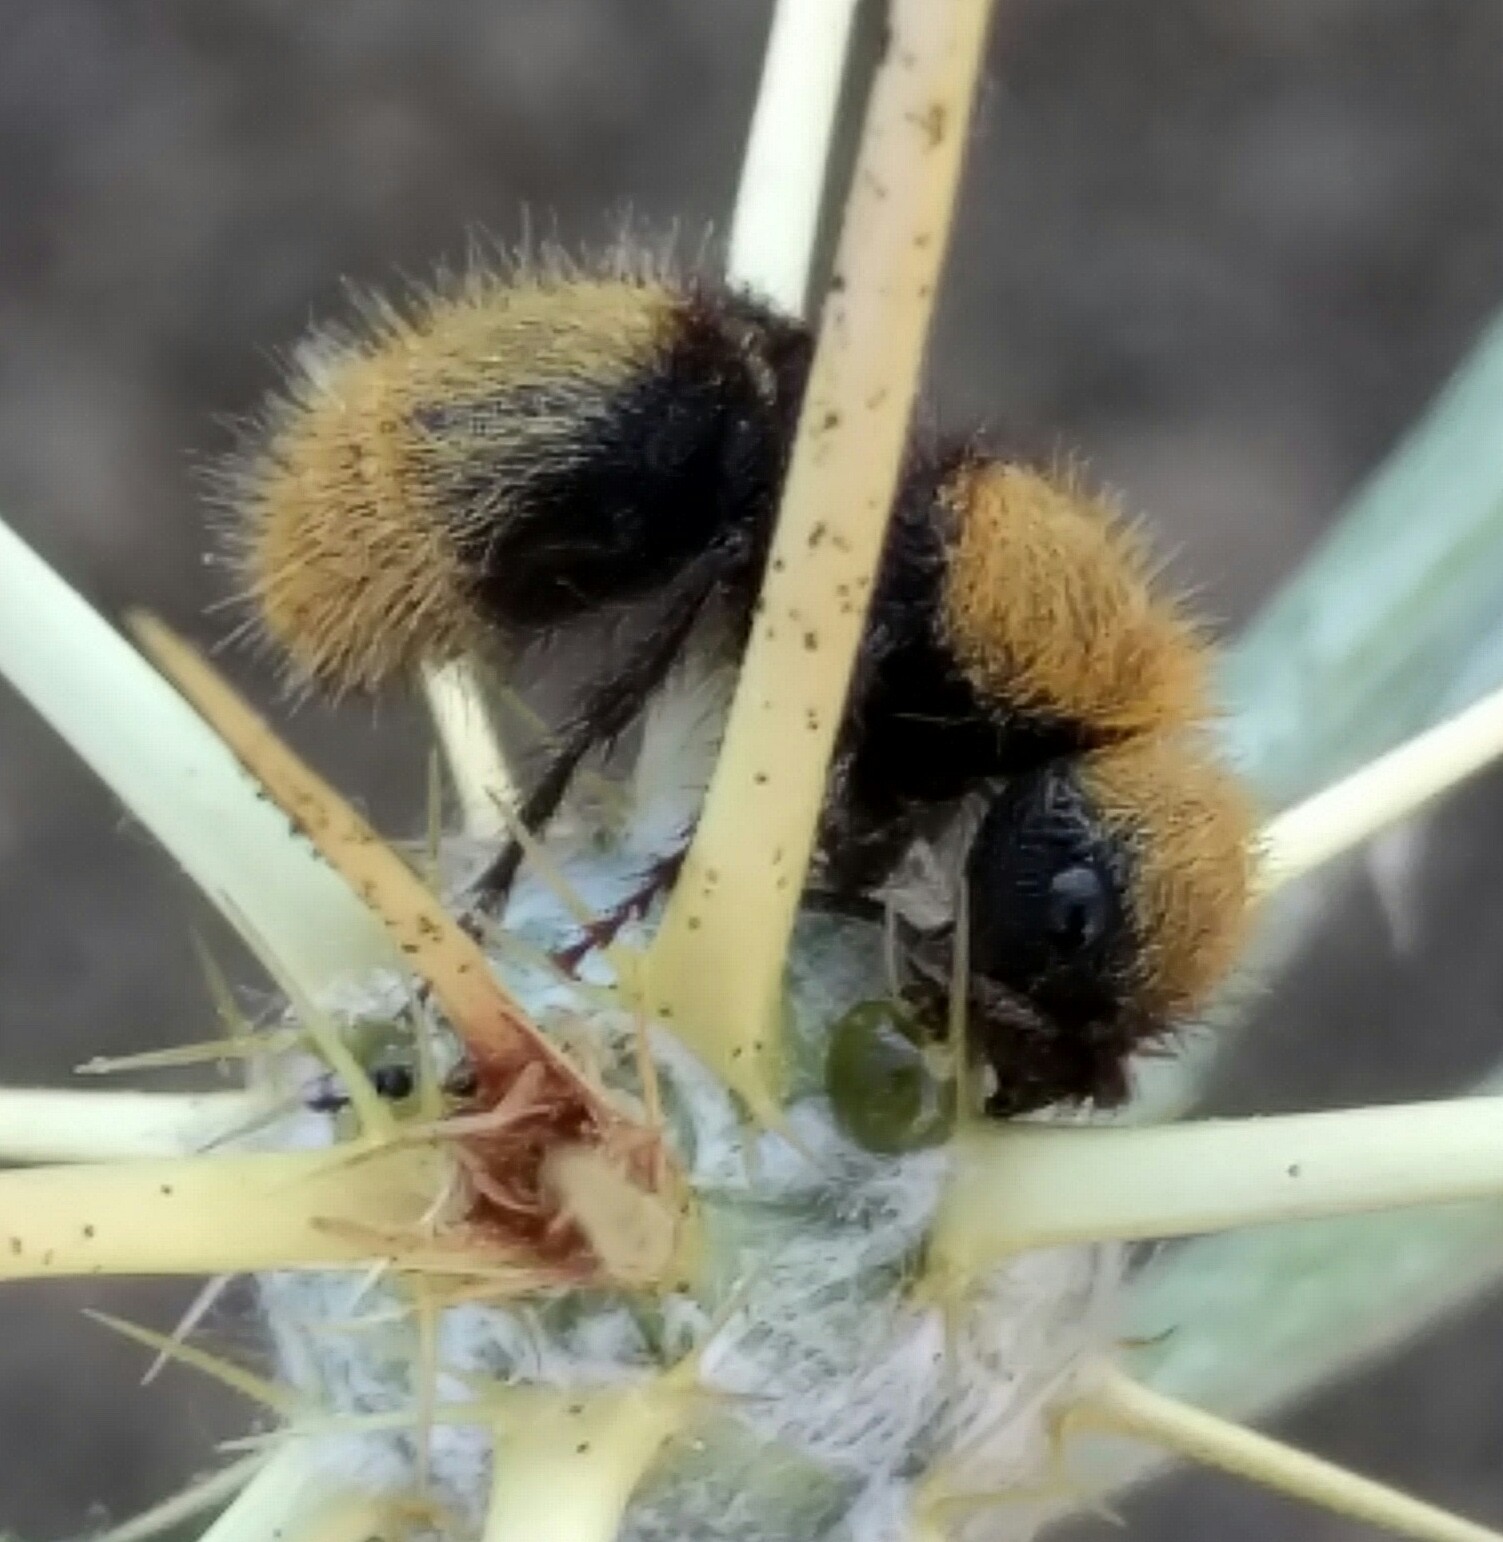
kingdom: Animalia
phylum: Arthropoda
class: Insecta
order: Hymenoptera
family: Mutillidae
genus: Dasymutilla
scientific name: Dasymutilla
